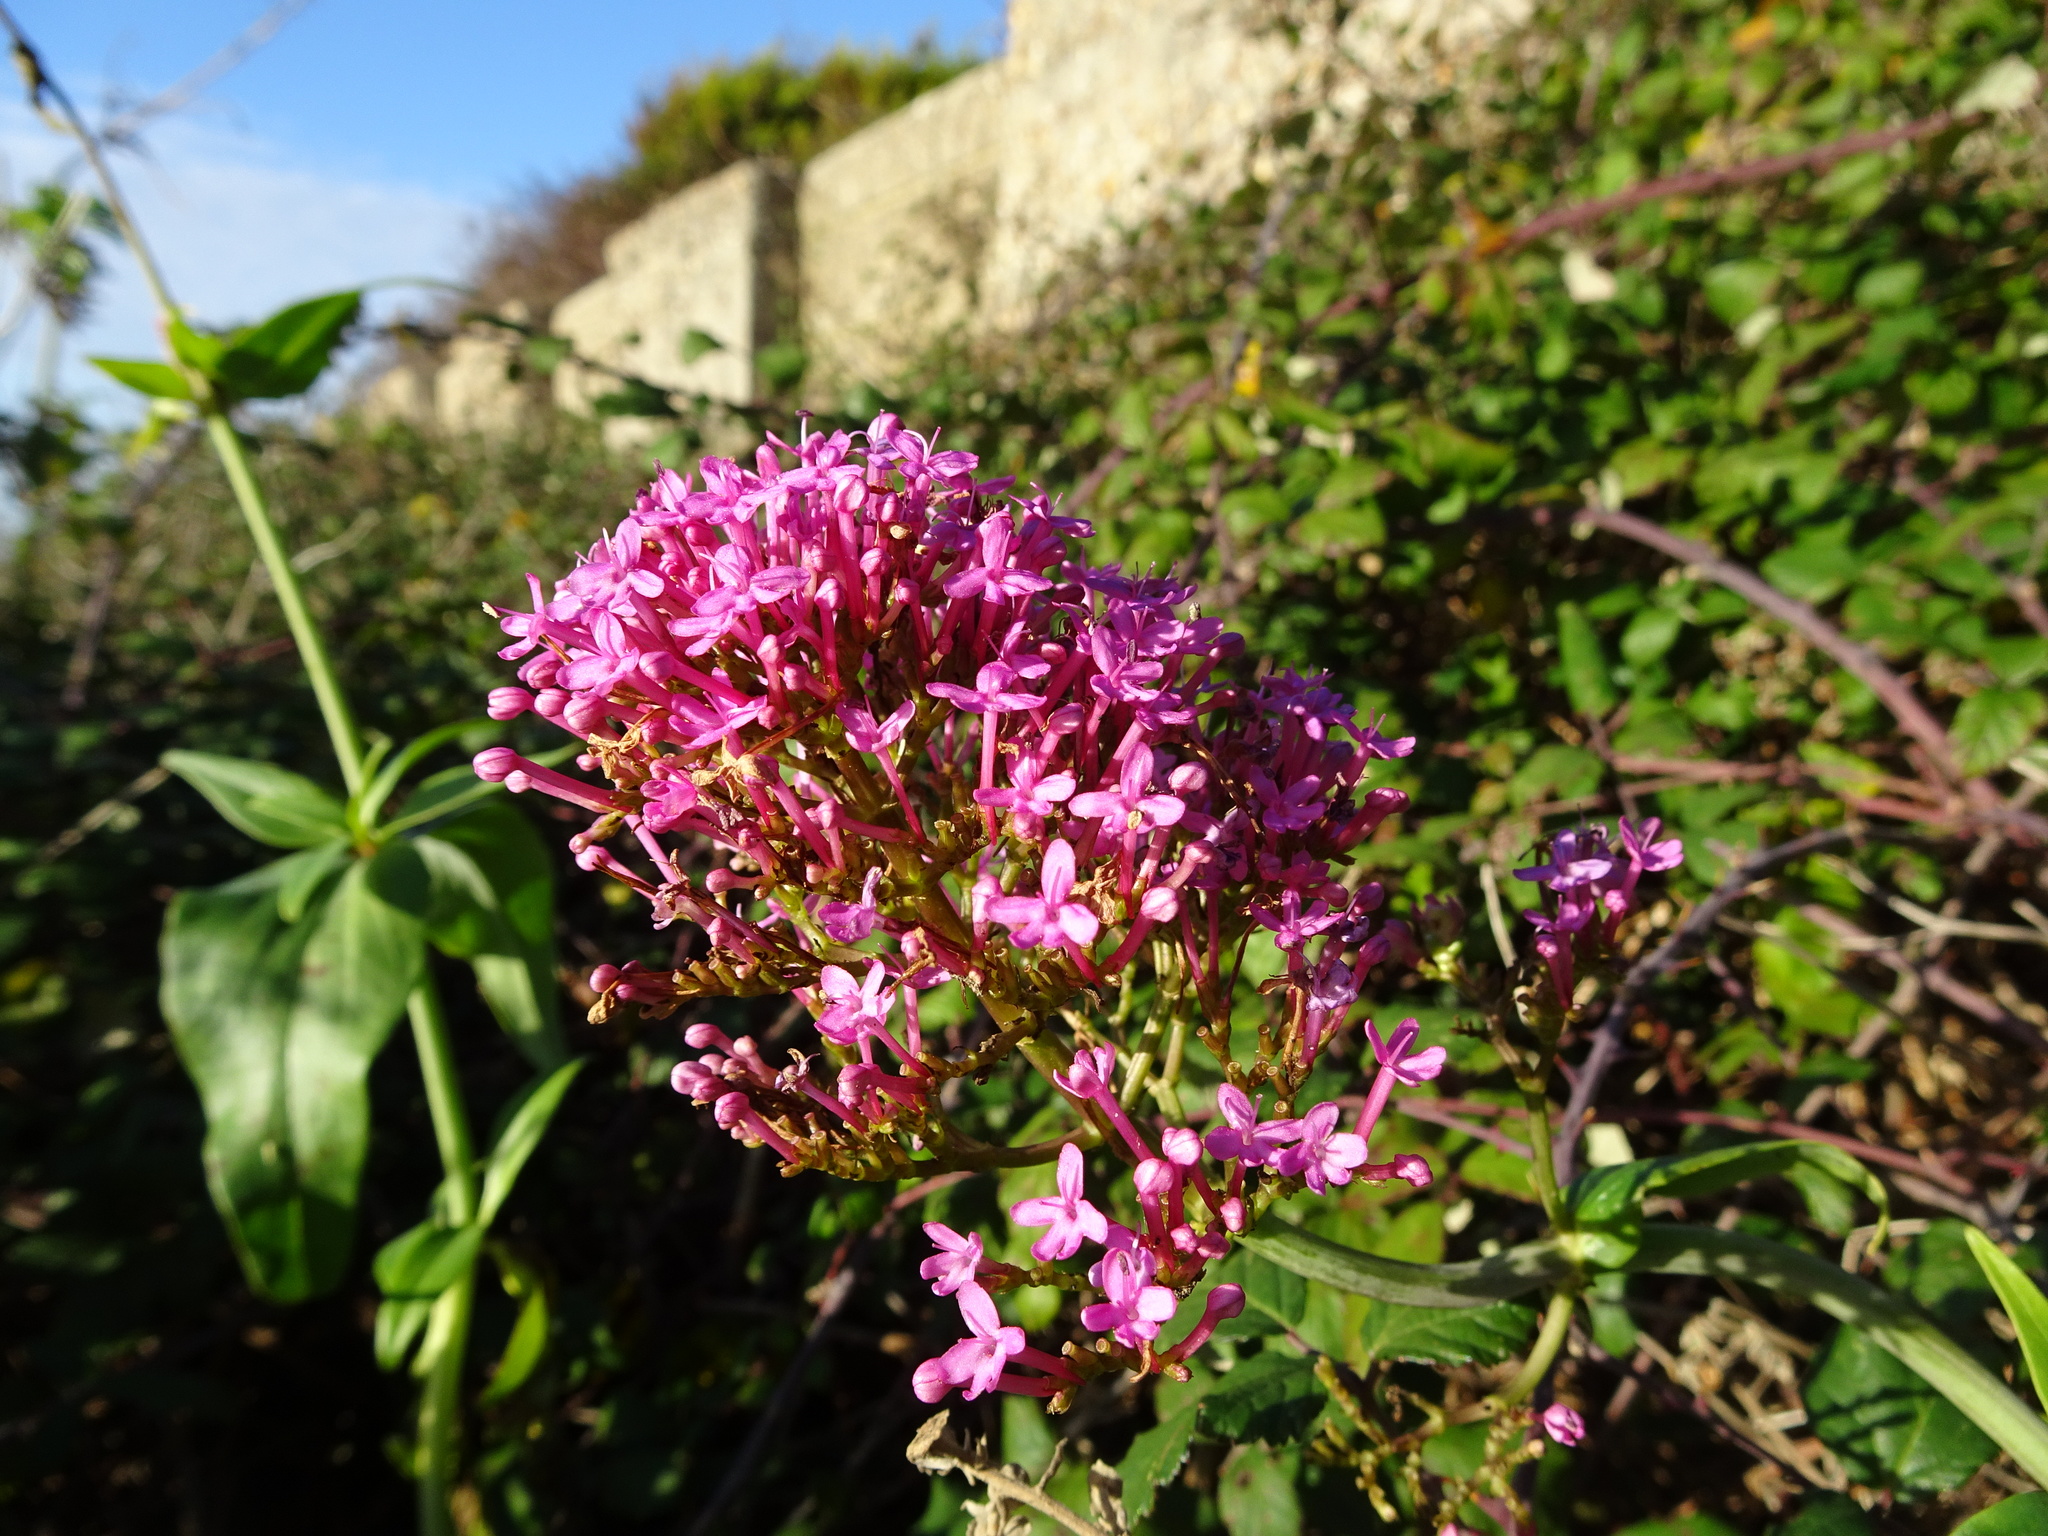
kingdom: Plantae
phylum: Tracheophyta
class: Magnoliopsida
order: Dipsacales
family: Caprifoliaceae
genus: Centranthus
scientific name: Centranthus ruber
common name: Red valerian
